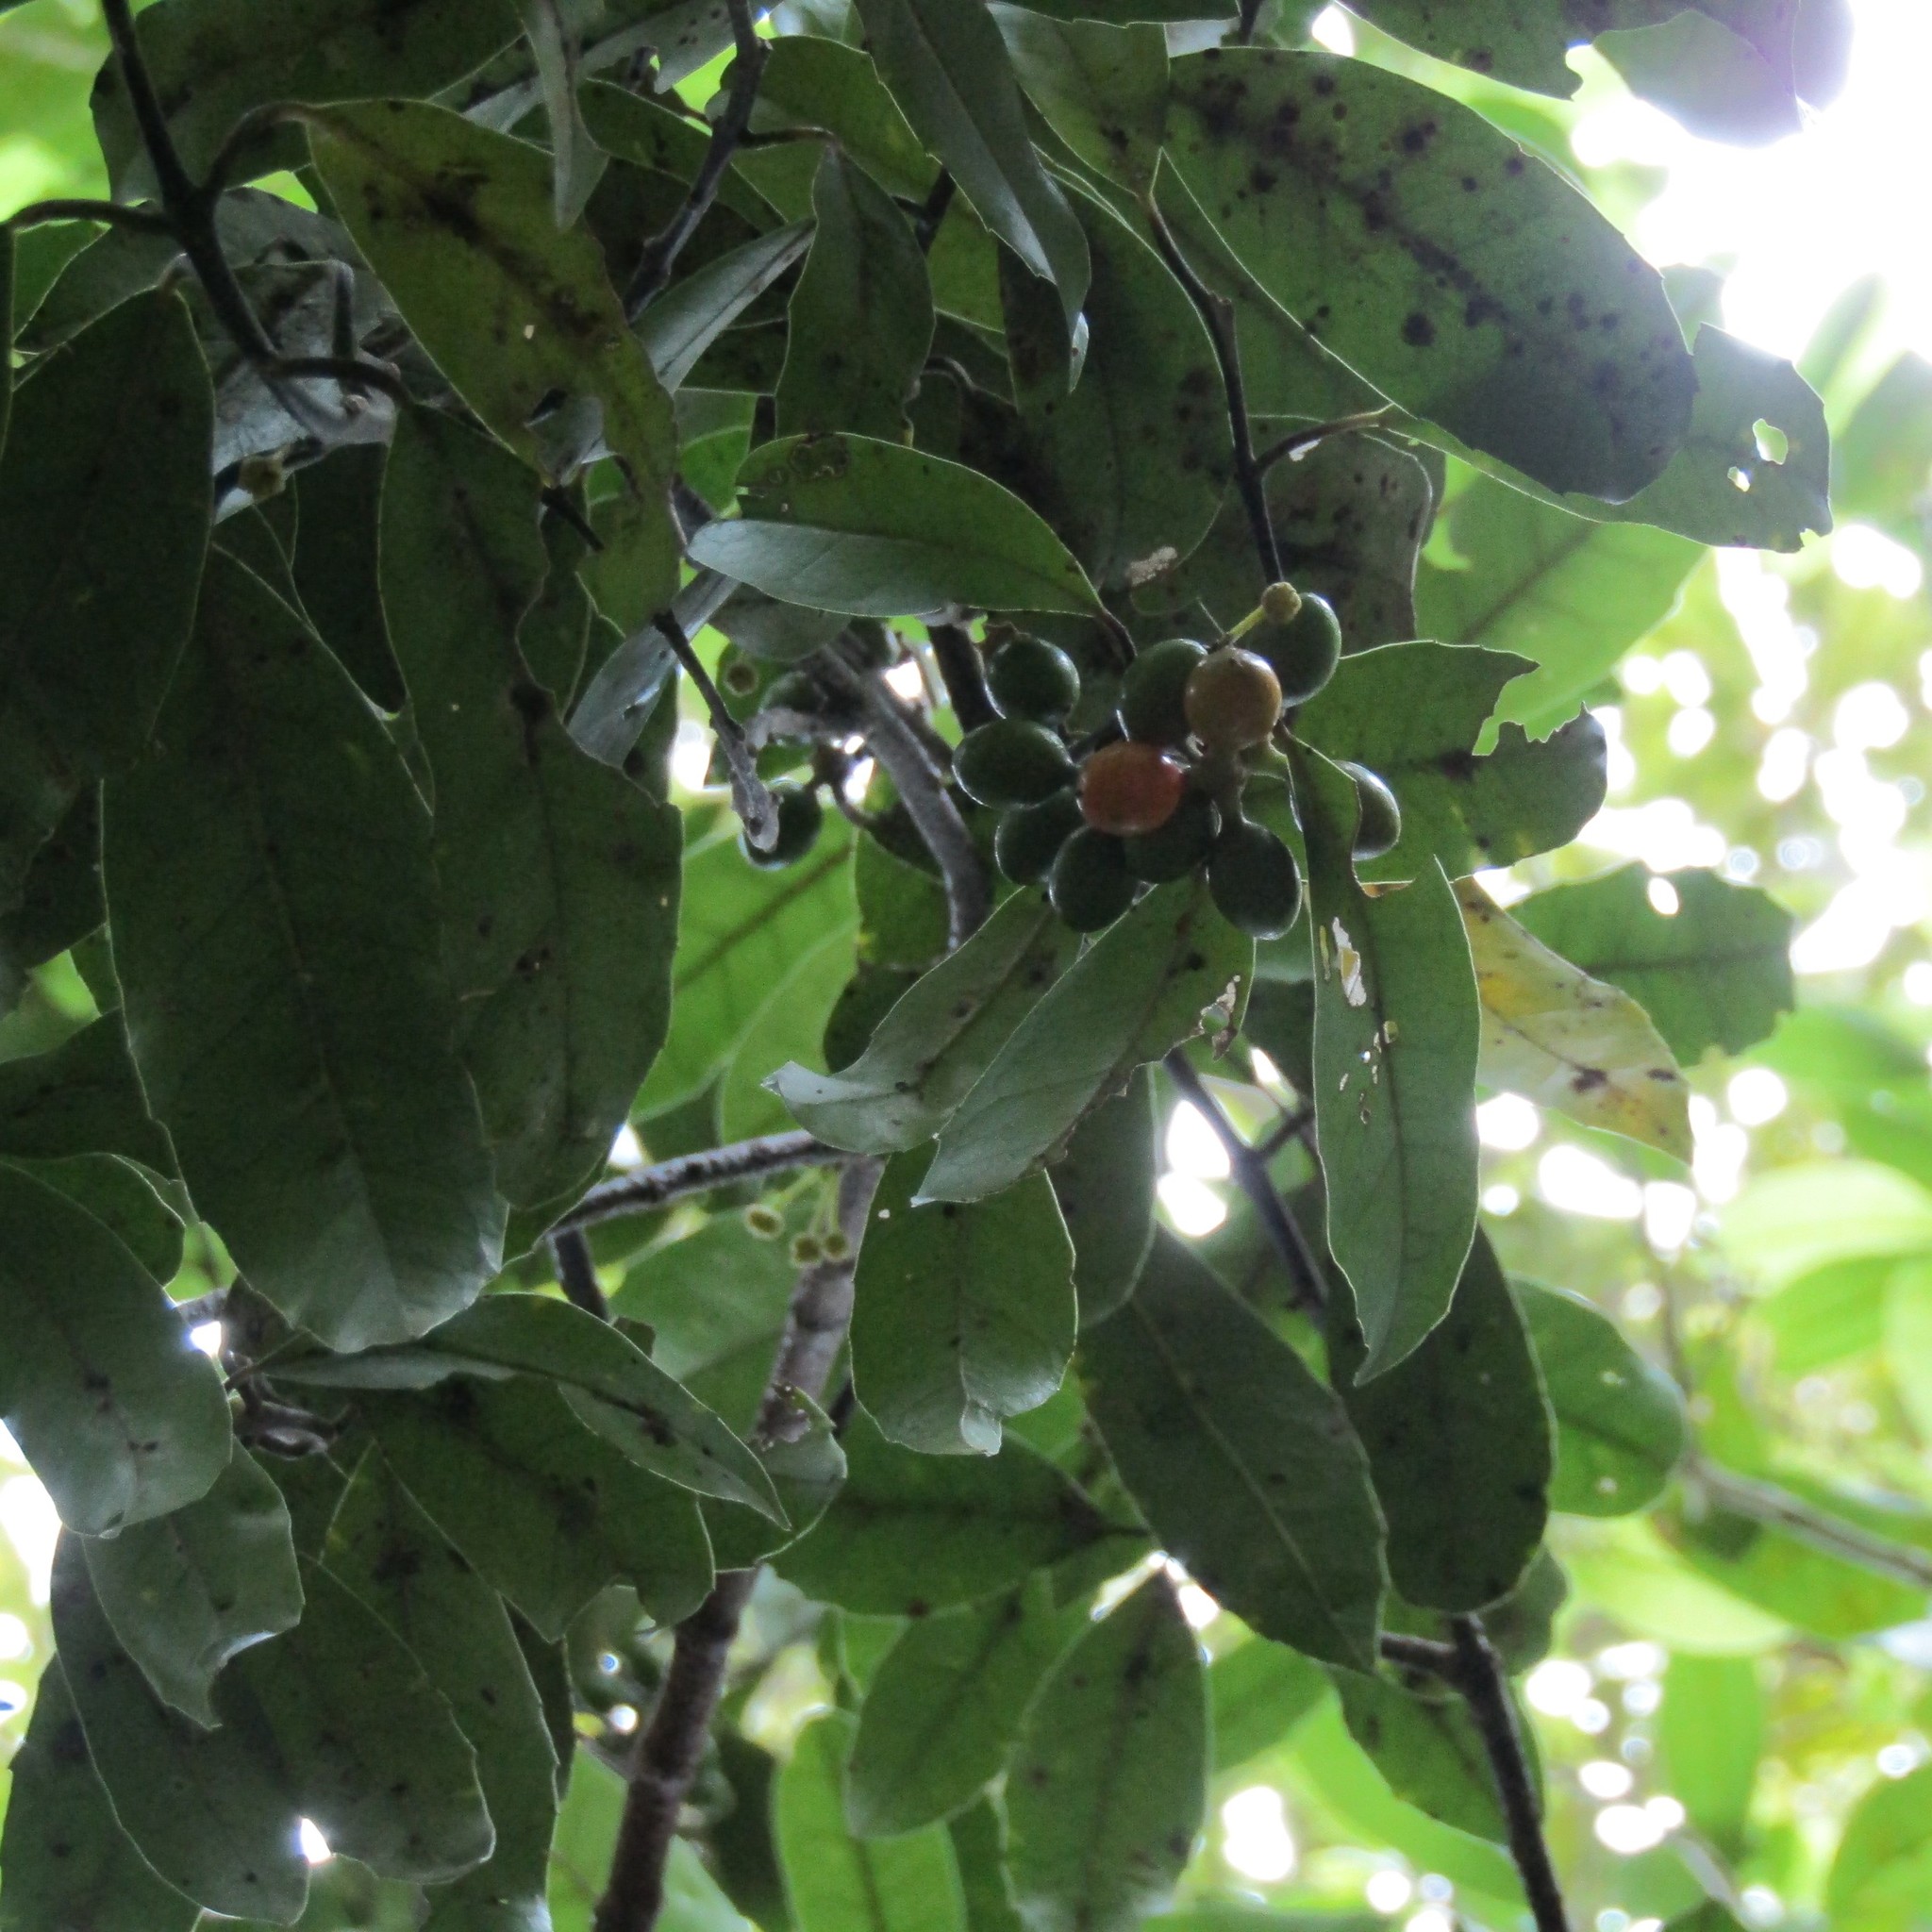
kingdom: Plantae
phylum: Tracheophyta
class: Magnoliopsida
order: Laurales
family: Monimiaceae
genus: Hedycarya
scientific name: Hedycarya arborea
